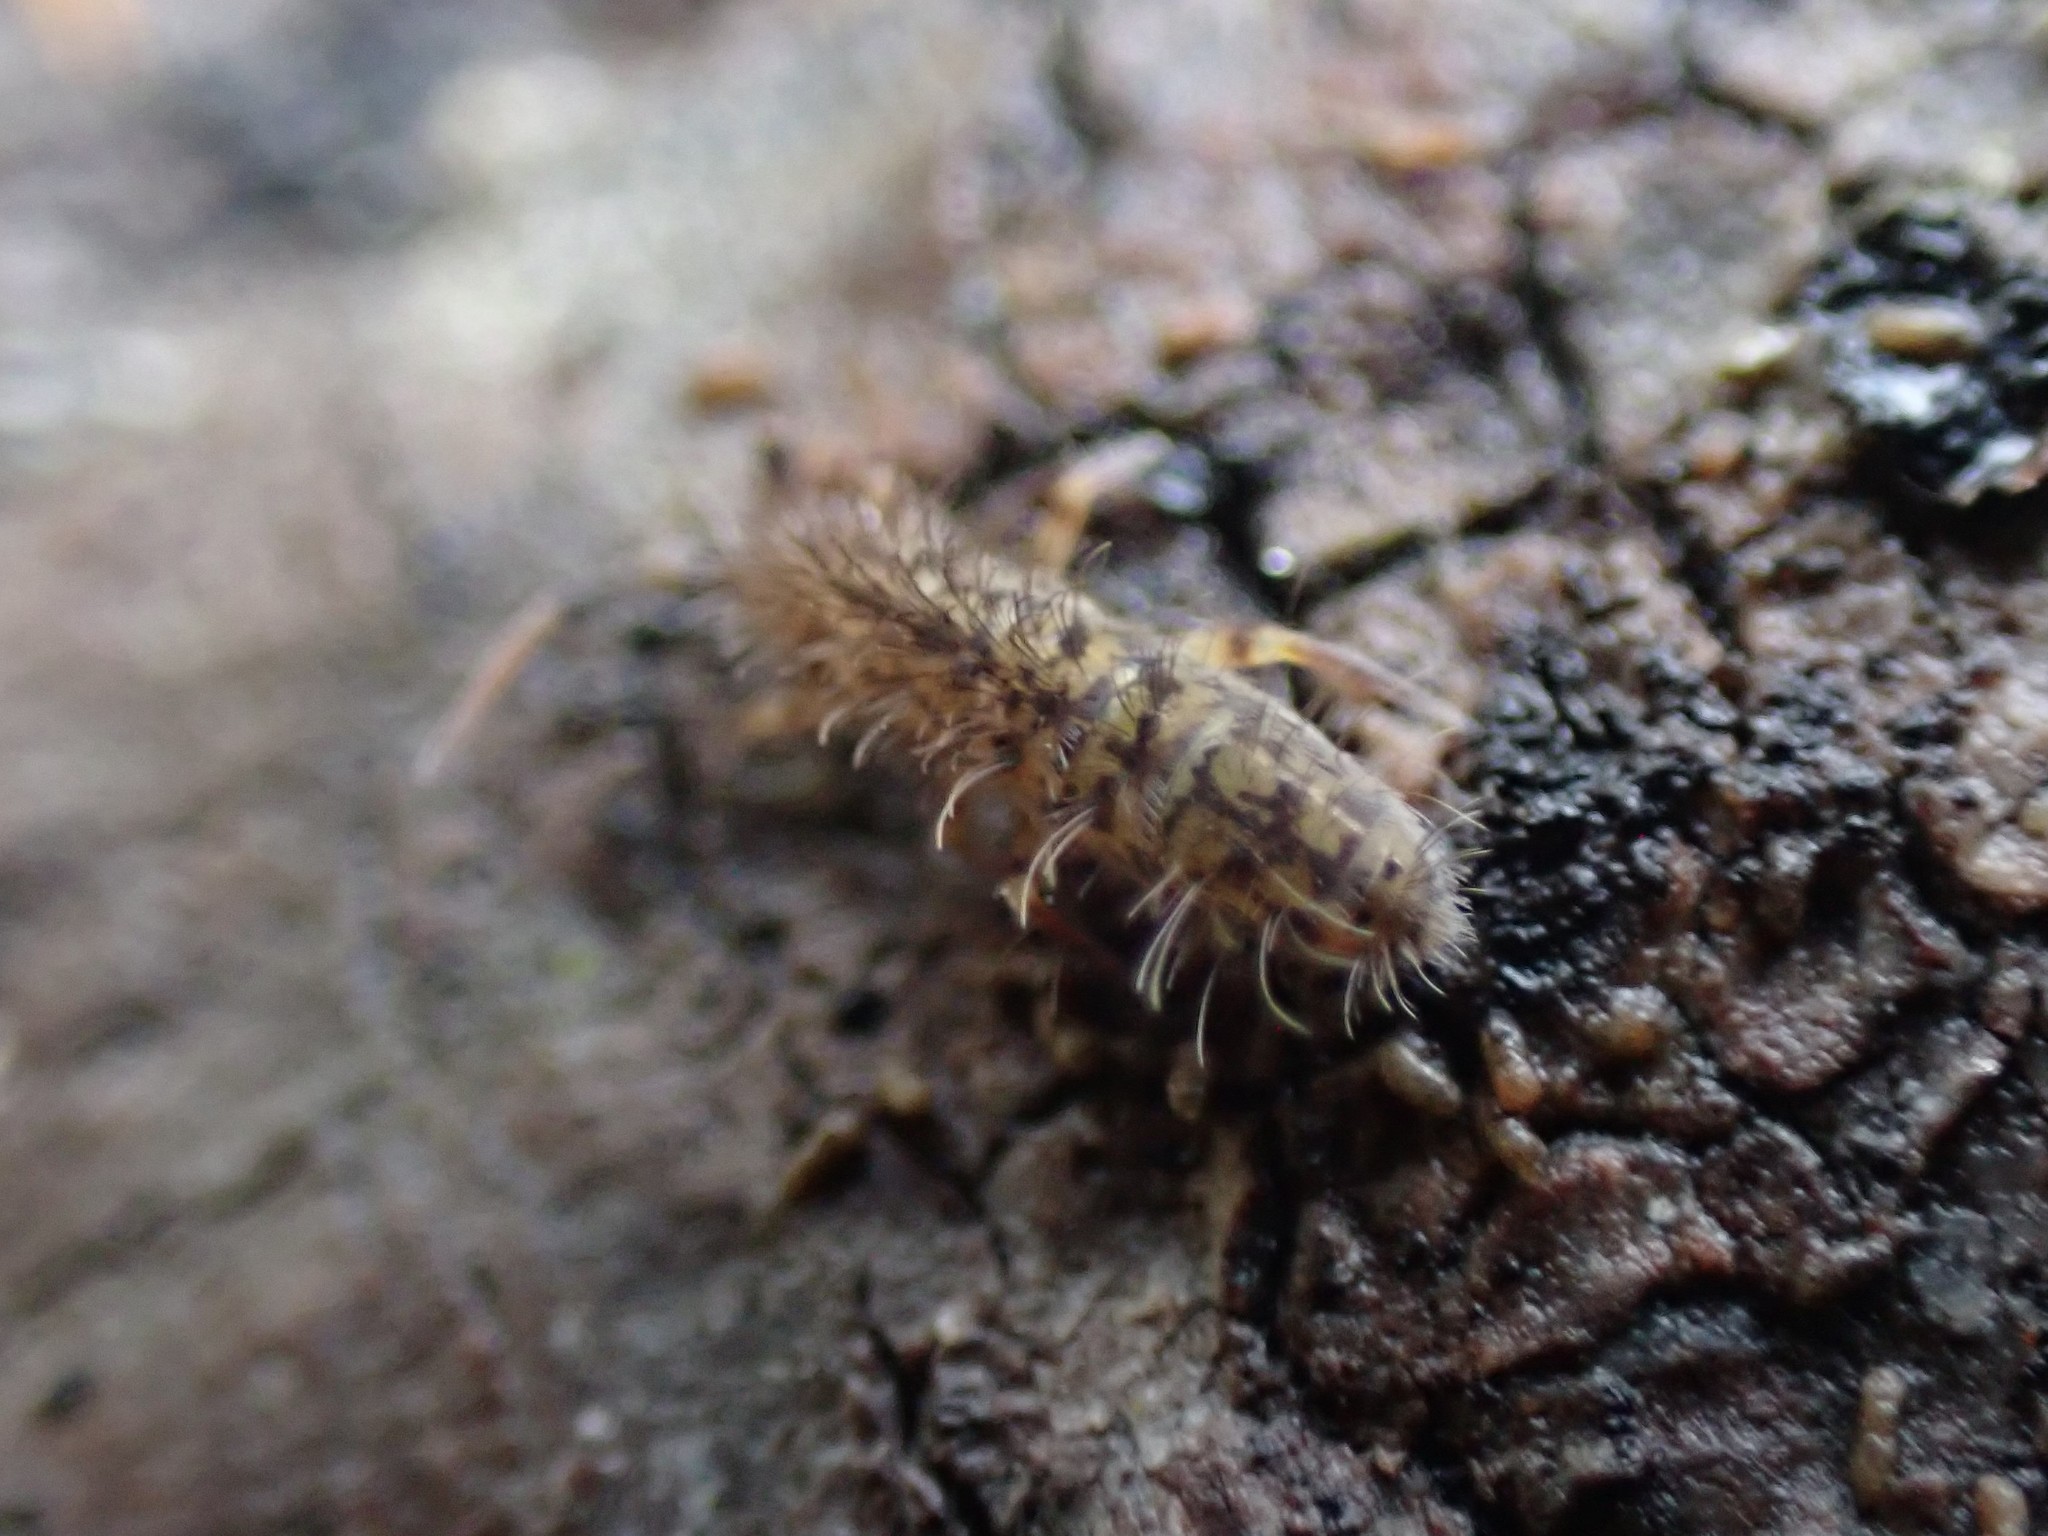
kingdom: Animalia
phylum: Arthropoda
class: Collembola
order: Entomobryomorpha
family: Orchesellidae
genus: Orchesella
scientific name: Orchesella villosa
